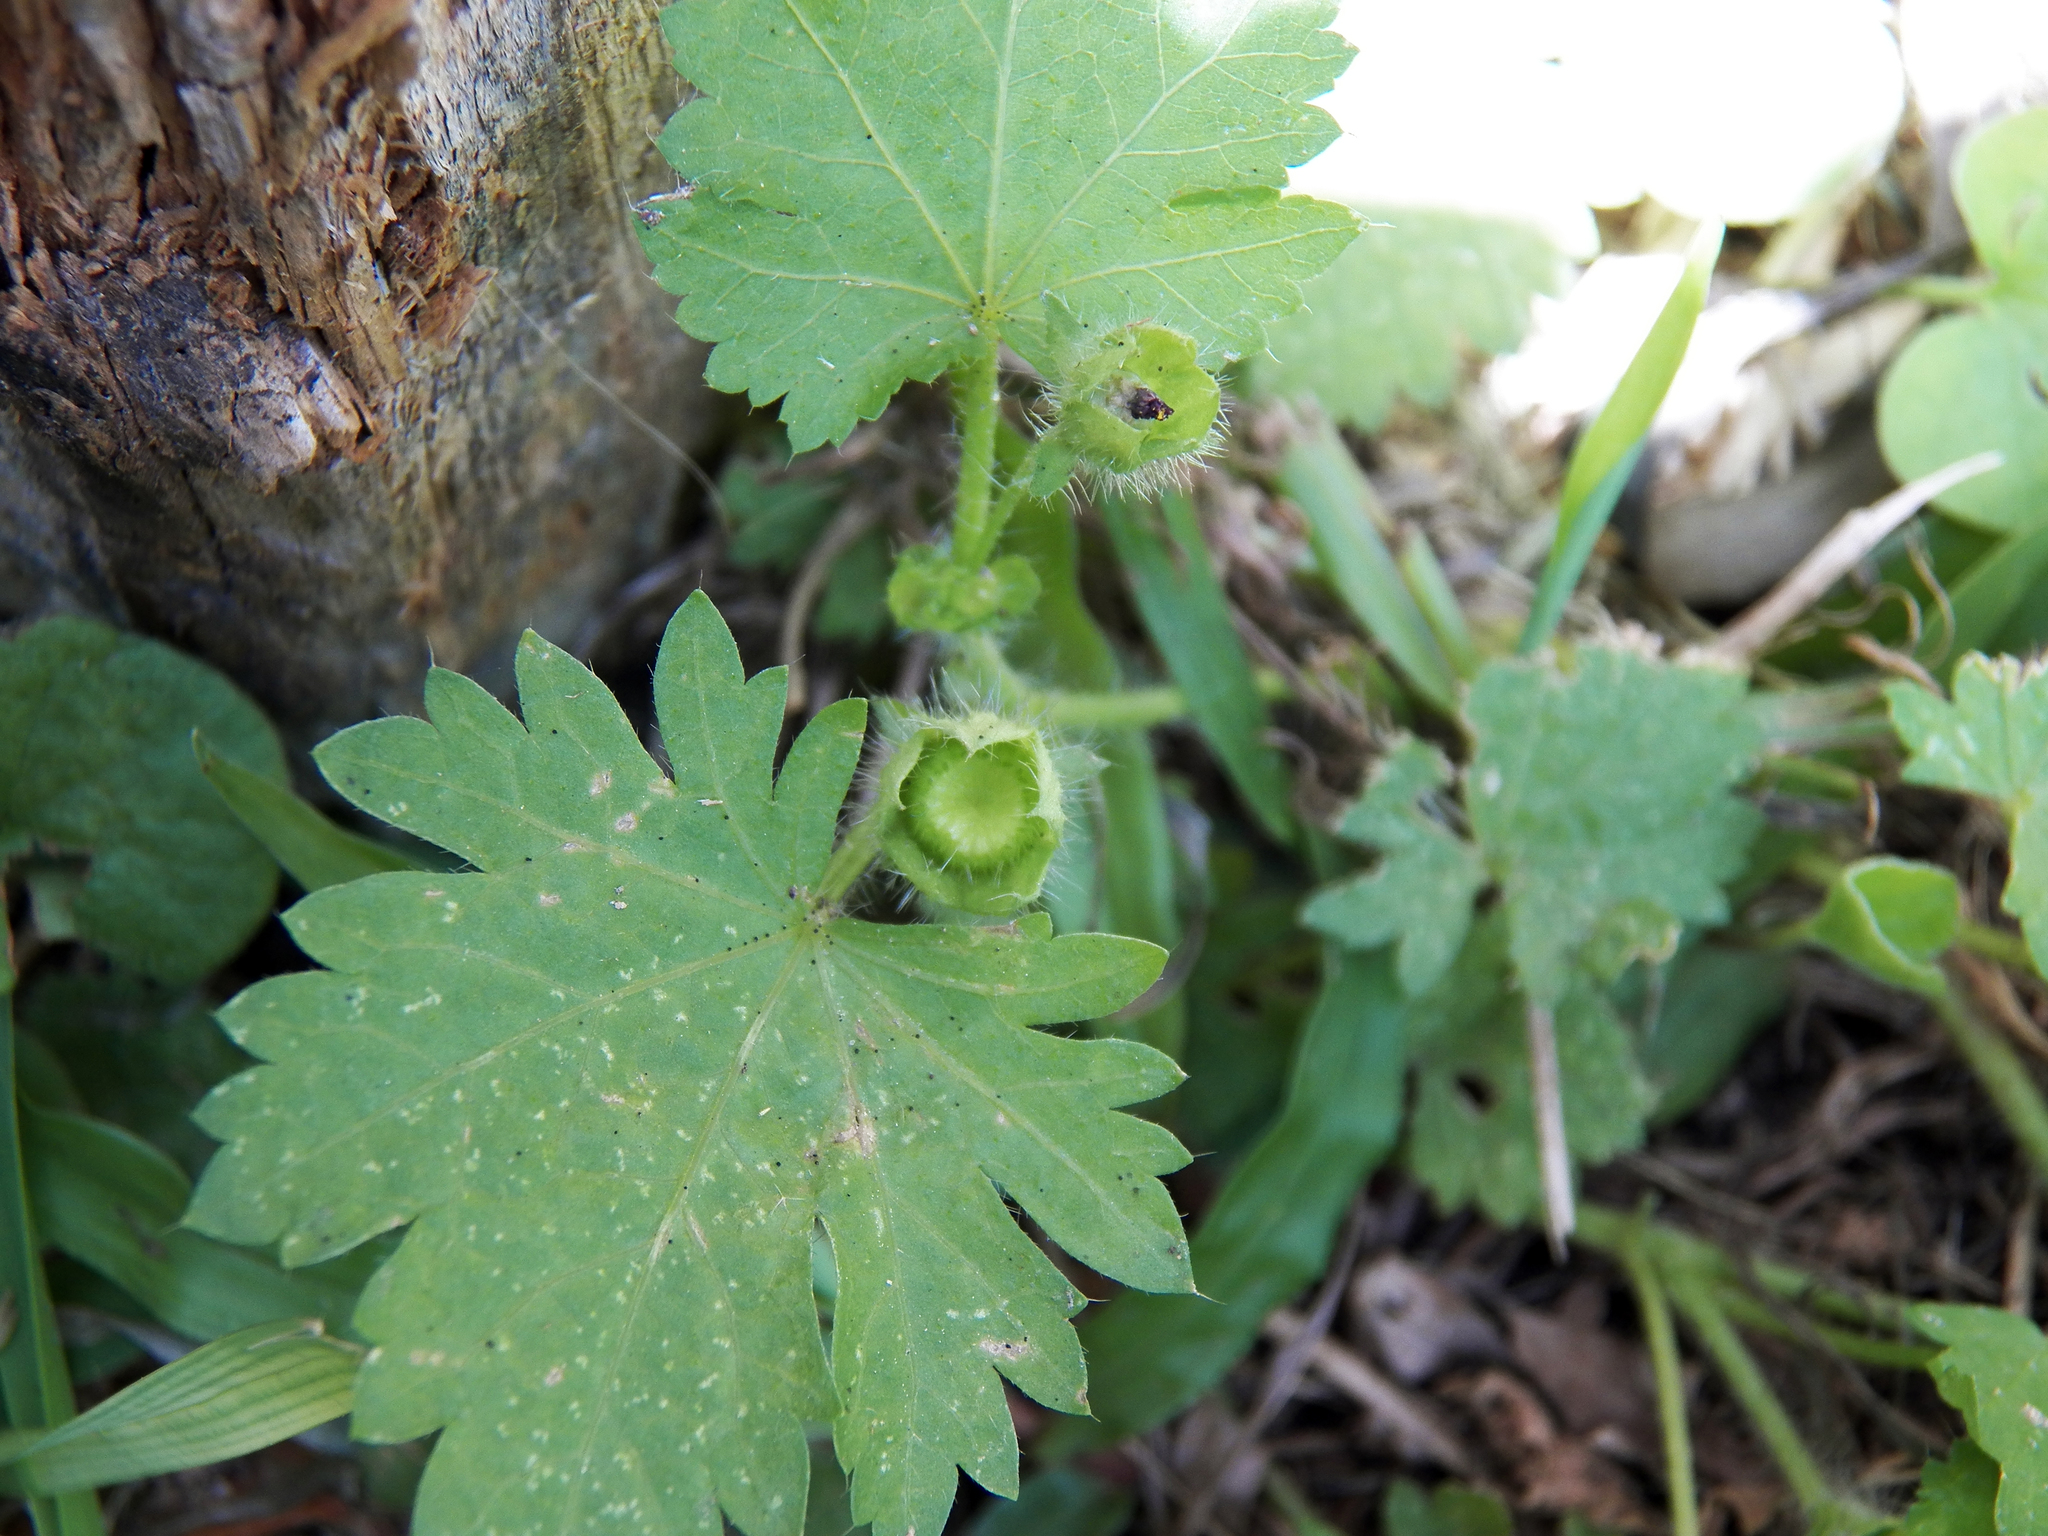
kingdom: Plantae
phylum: Tracheophyta
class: Magnoliopsida
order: Malvales
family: Malvaceae
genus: Modiola
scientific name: Modiola caroliniana
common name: Carolina bristlemallow
